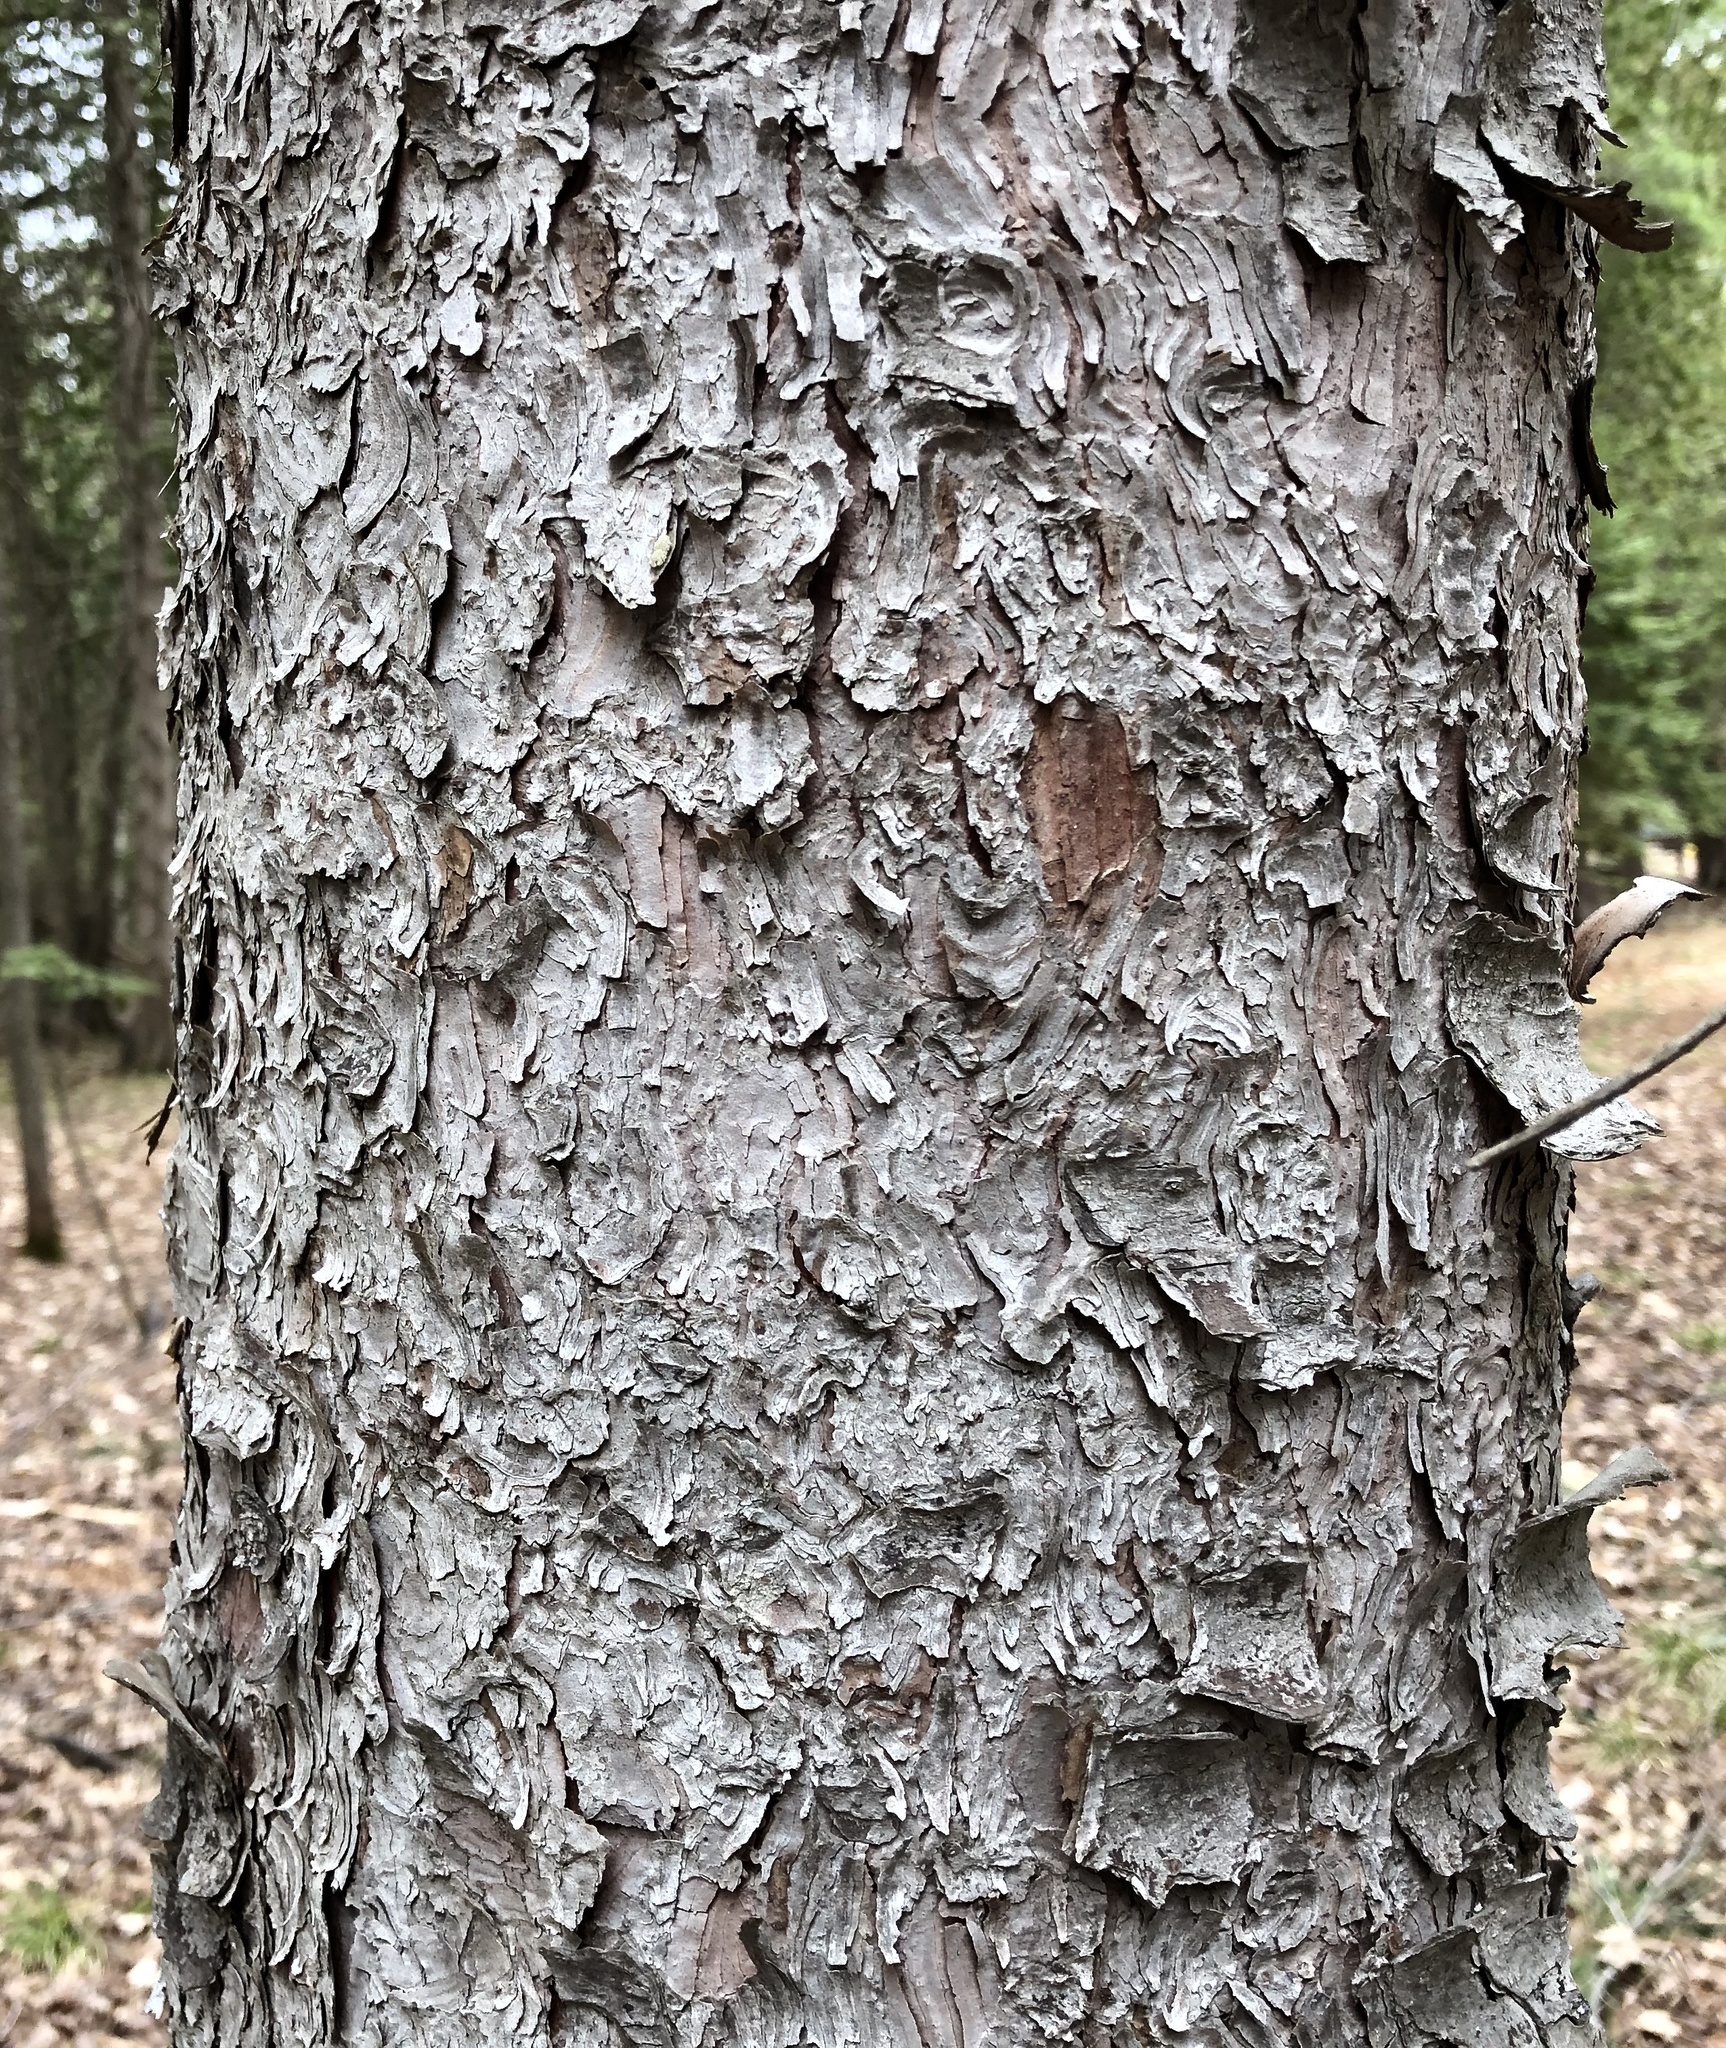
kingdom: Plantae
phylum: Tracheophyta
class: Pinopsida
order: Pinales
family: Pinaceae
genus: Picea
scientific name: Picea glauca
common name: White spruce
